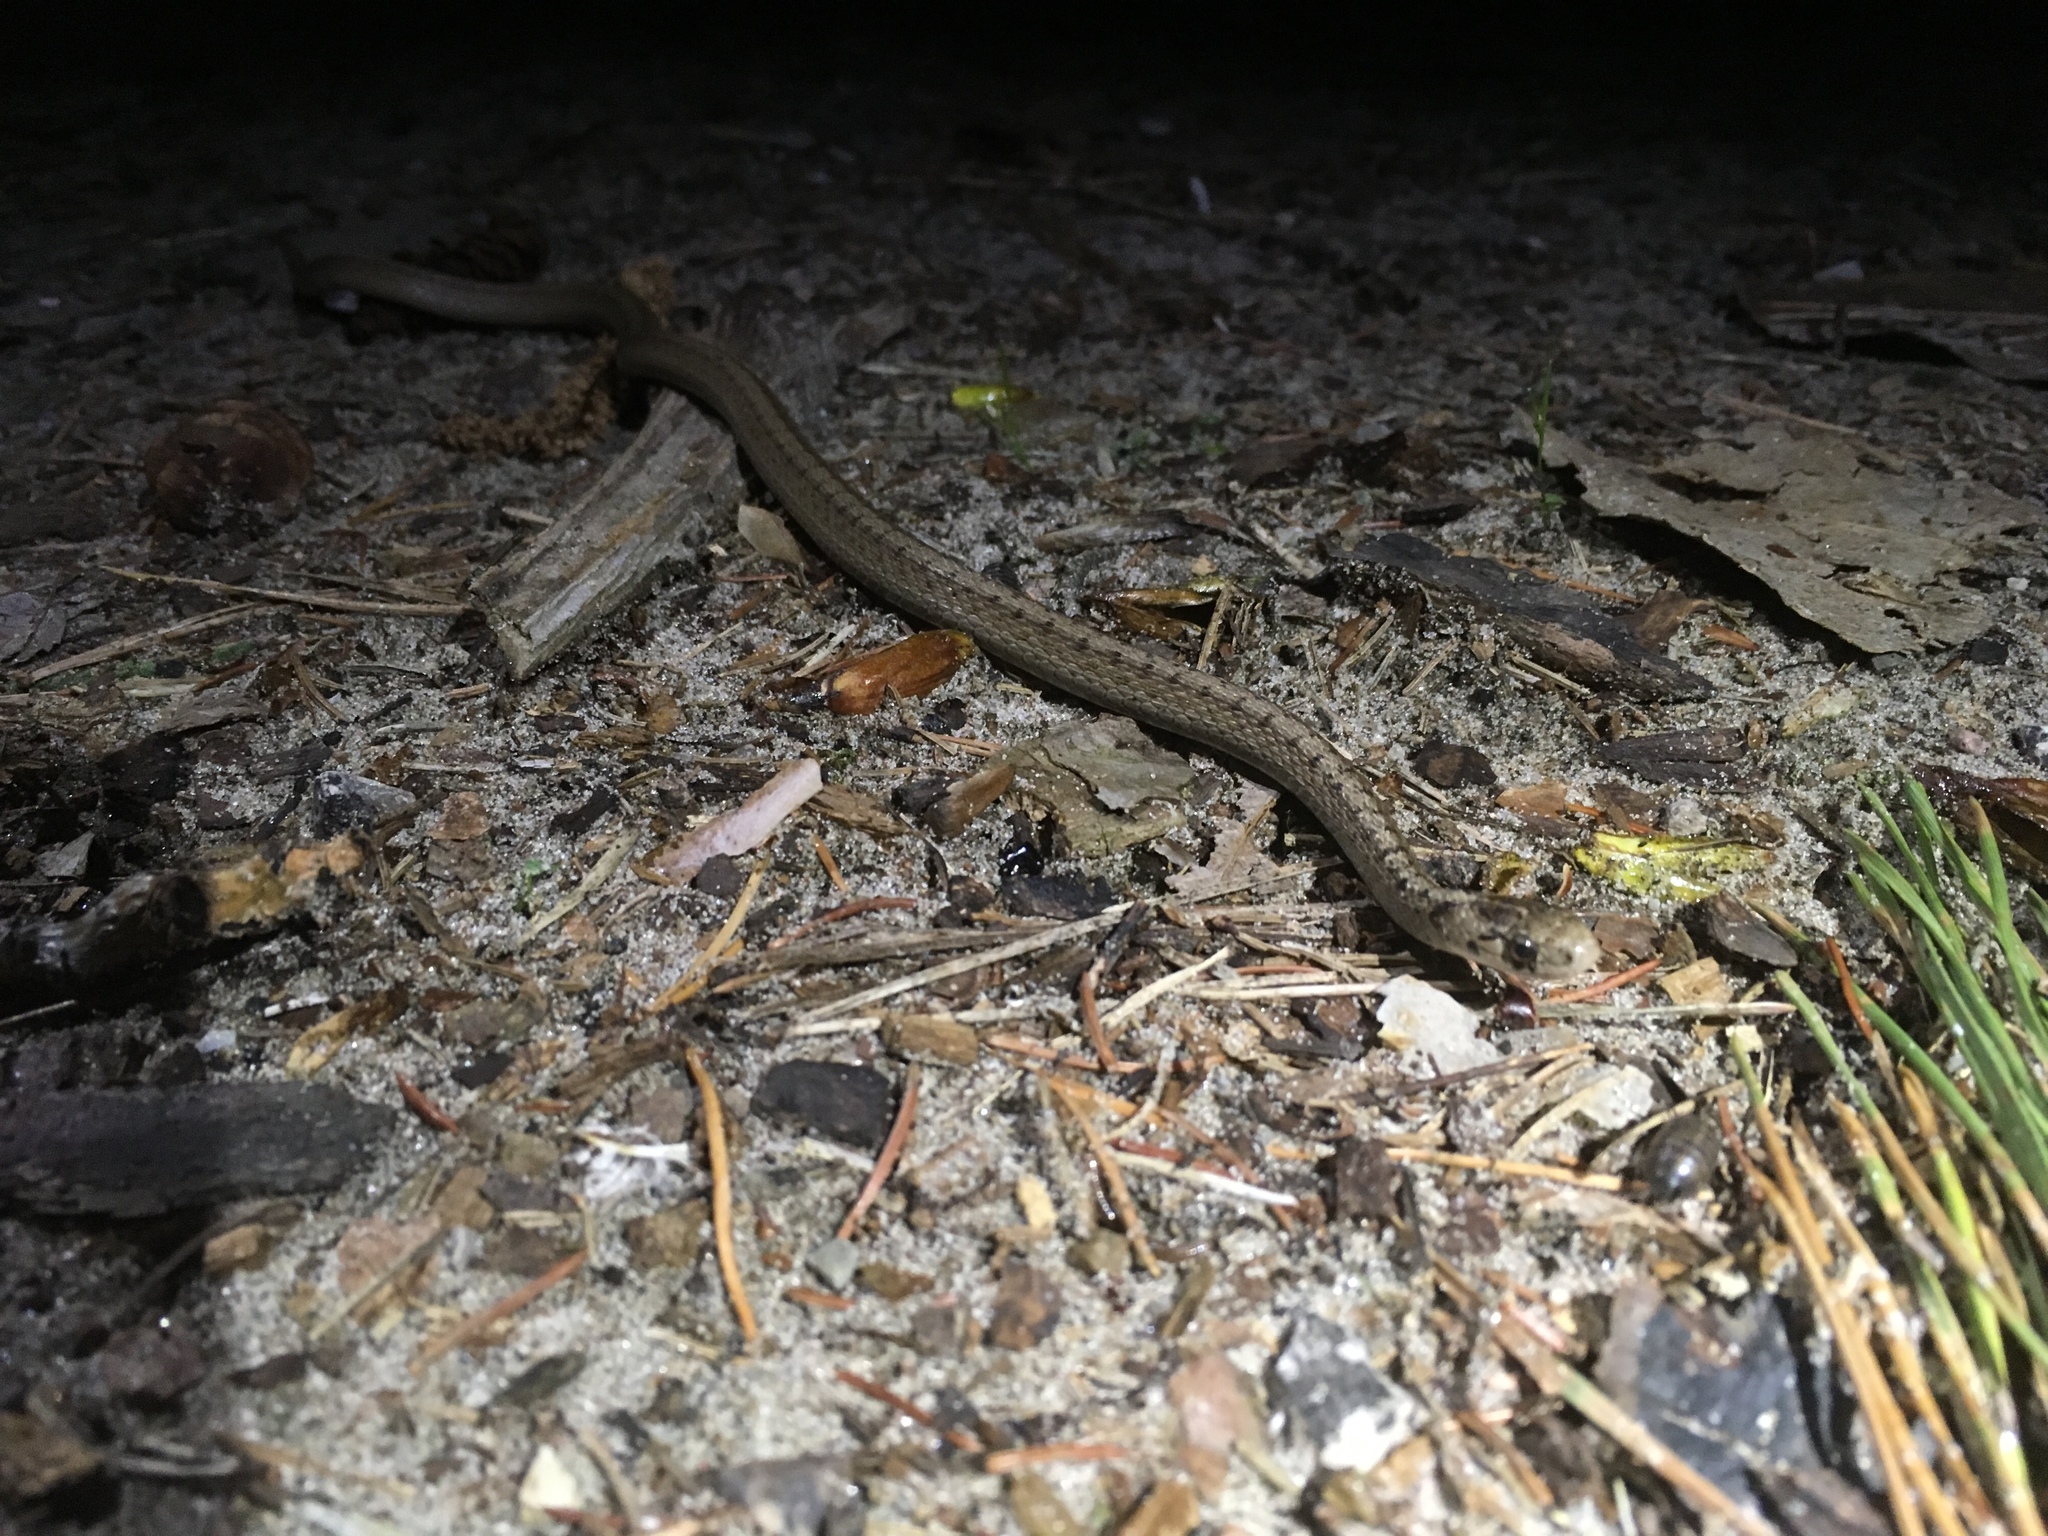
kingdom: Animalia
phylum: Chordata
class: Squamata
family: Colubridae
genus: Storeria
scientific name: Storeria dekayi
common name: (dekay’s) brown snake
